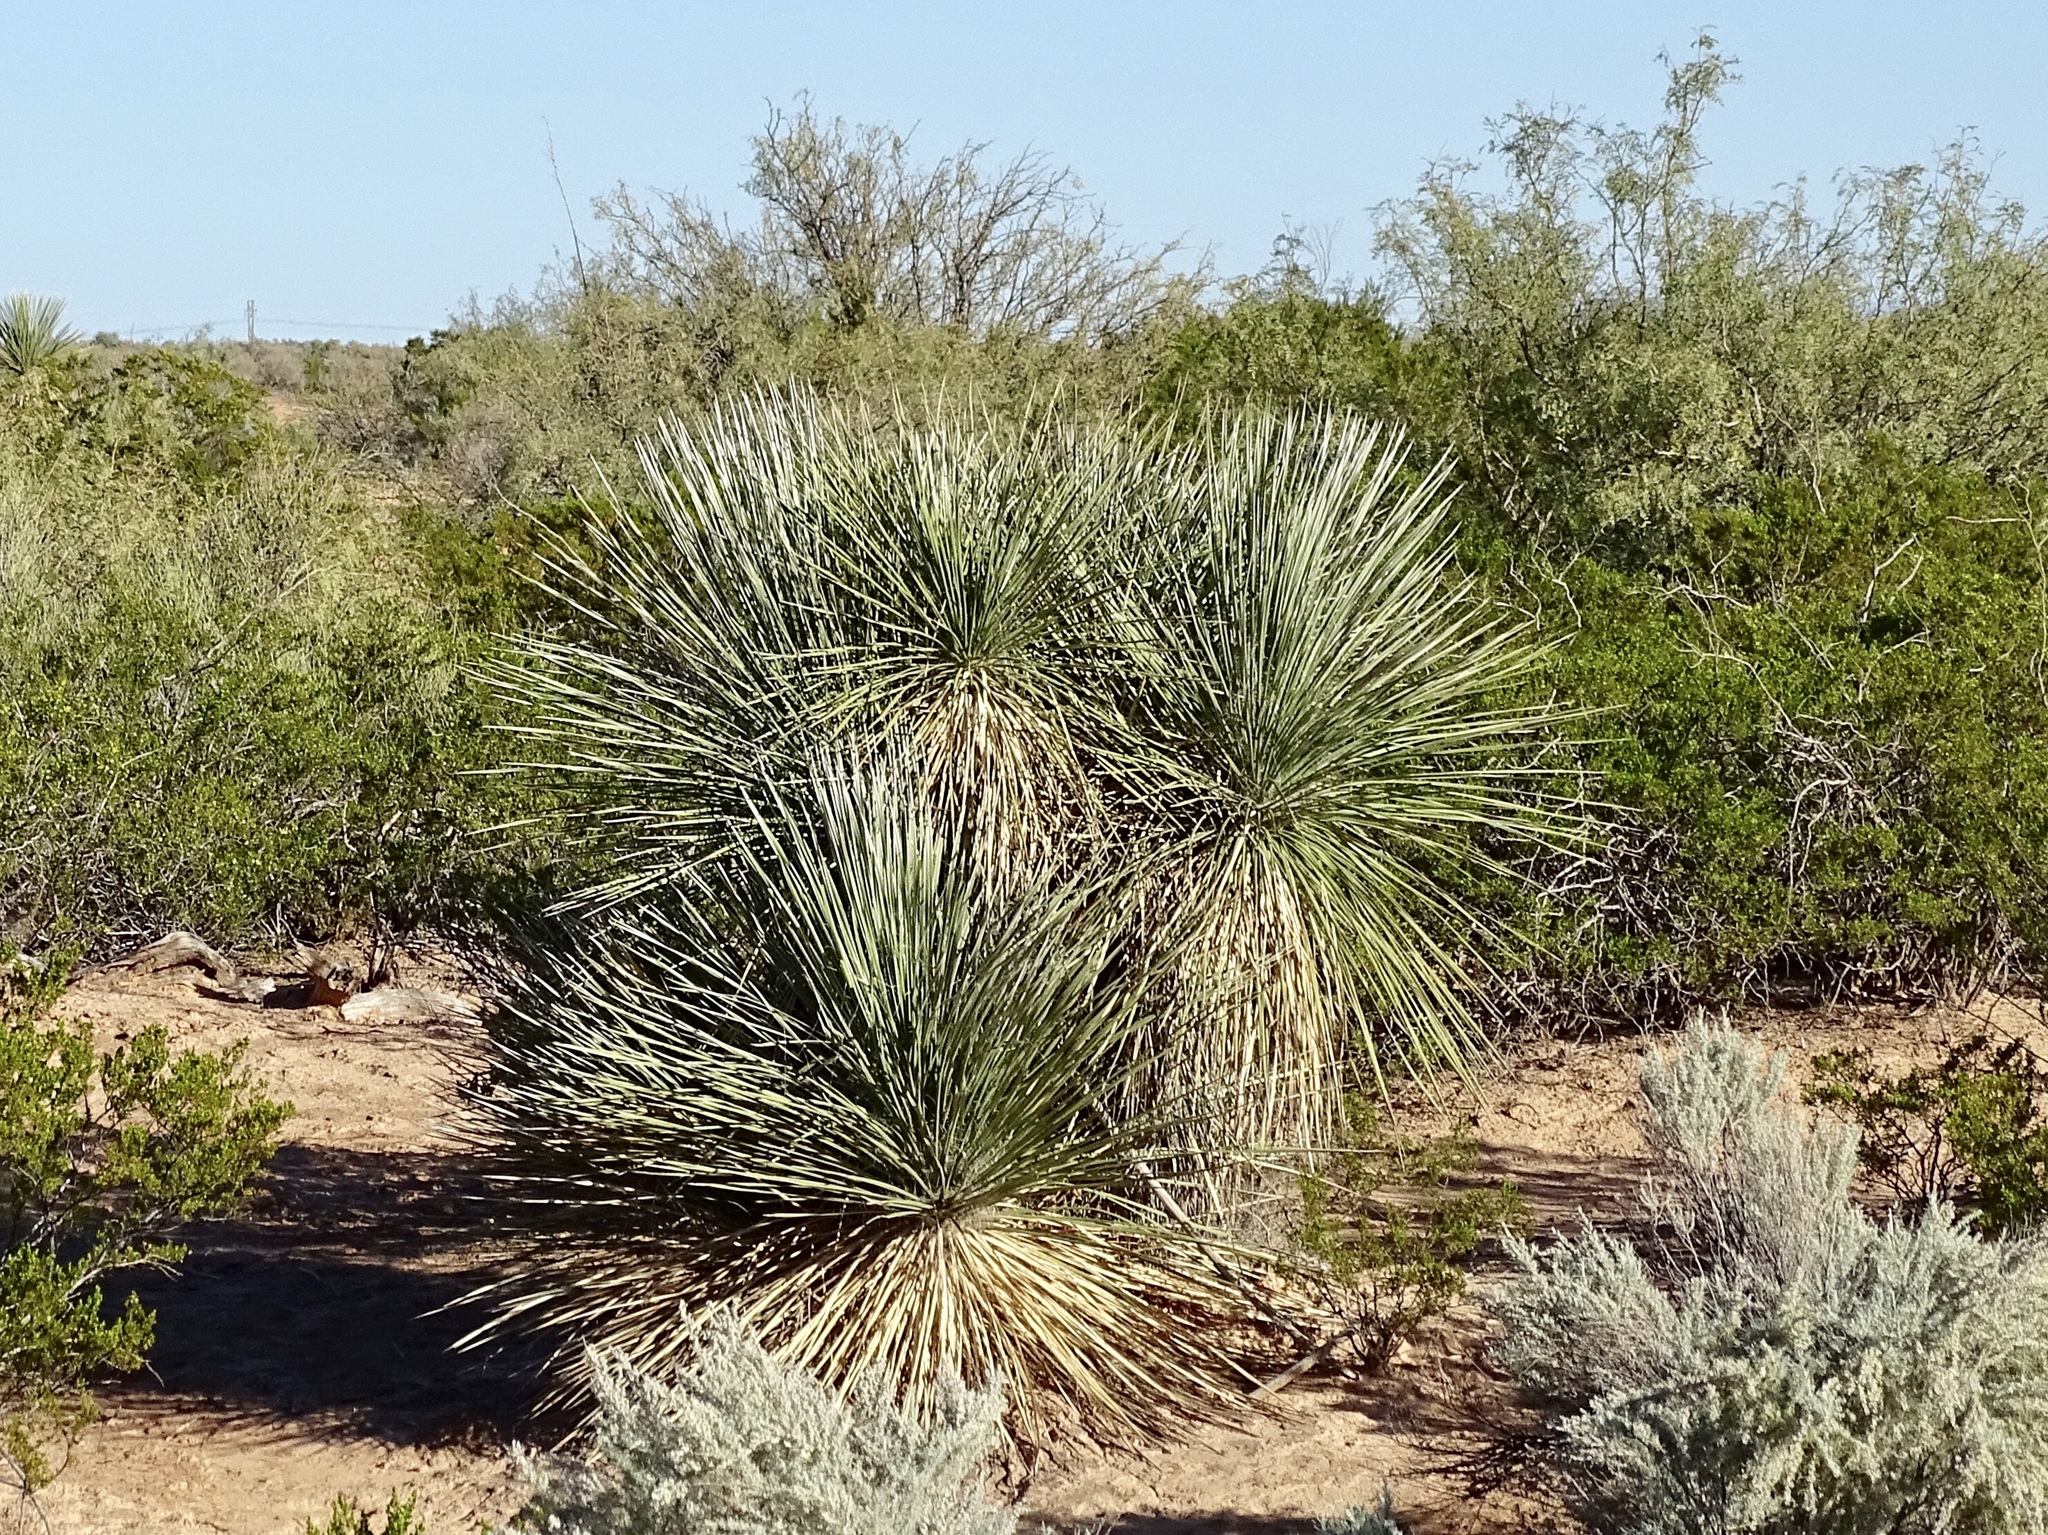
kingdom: Plantae
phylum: Tracheophyta
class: Liliopsida
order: Asparagales
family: Asparagaceae
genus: Yucca
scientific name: Yucca elata
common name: Palmella
